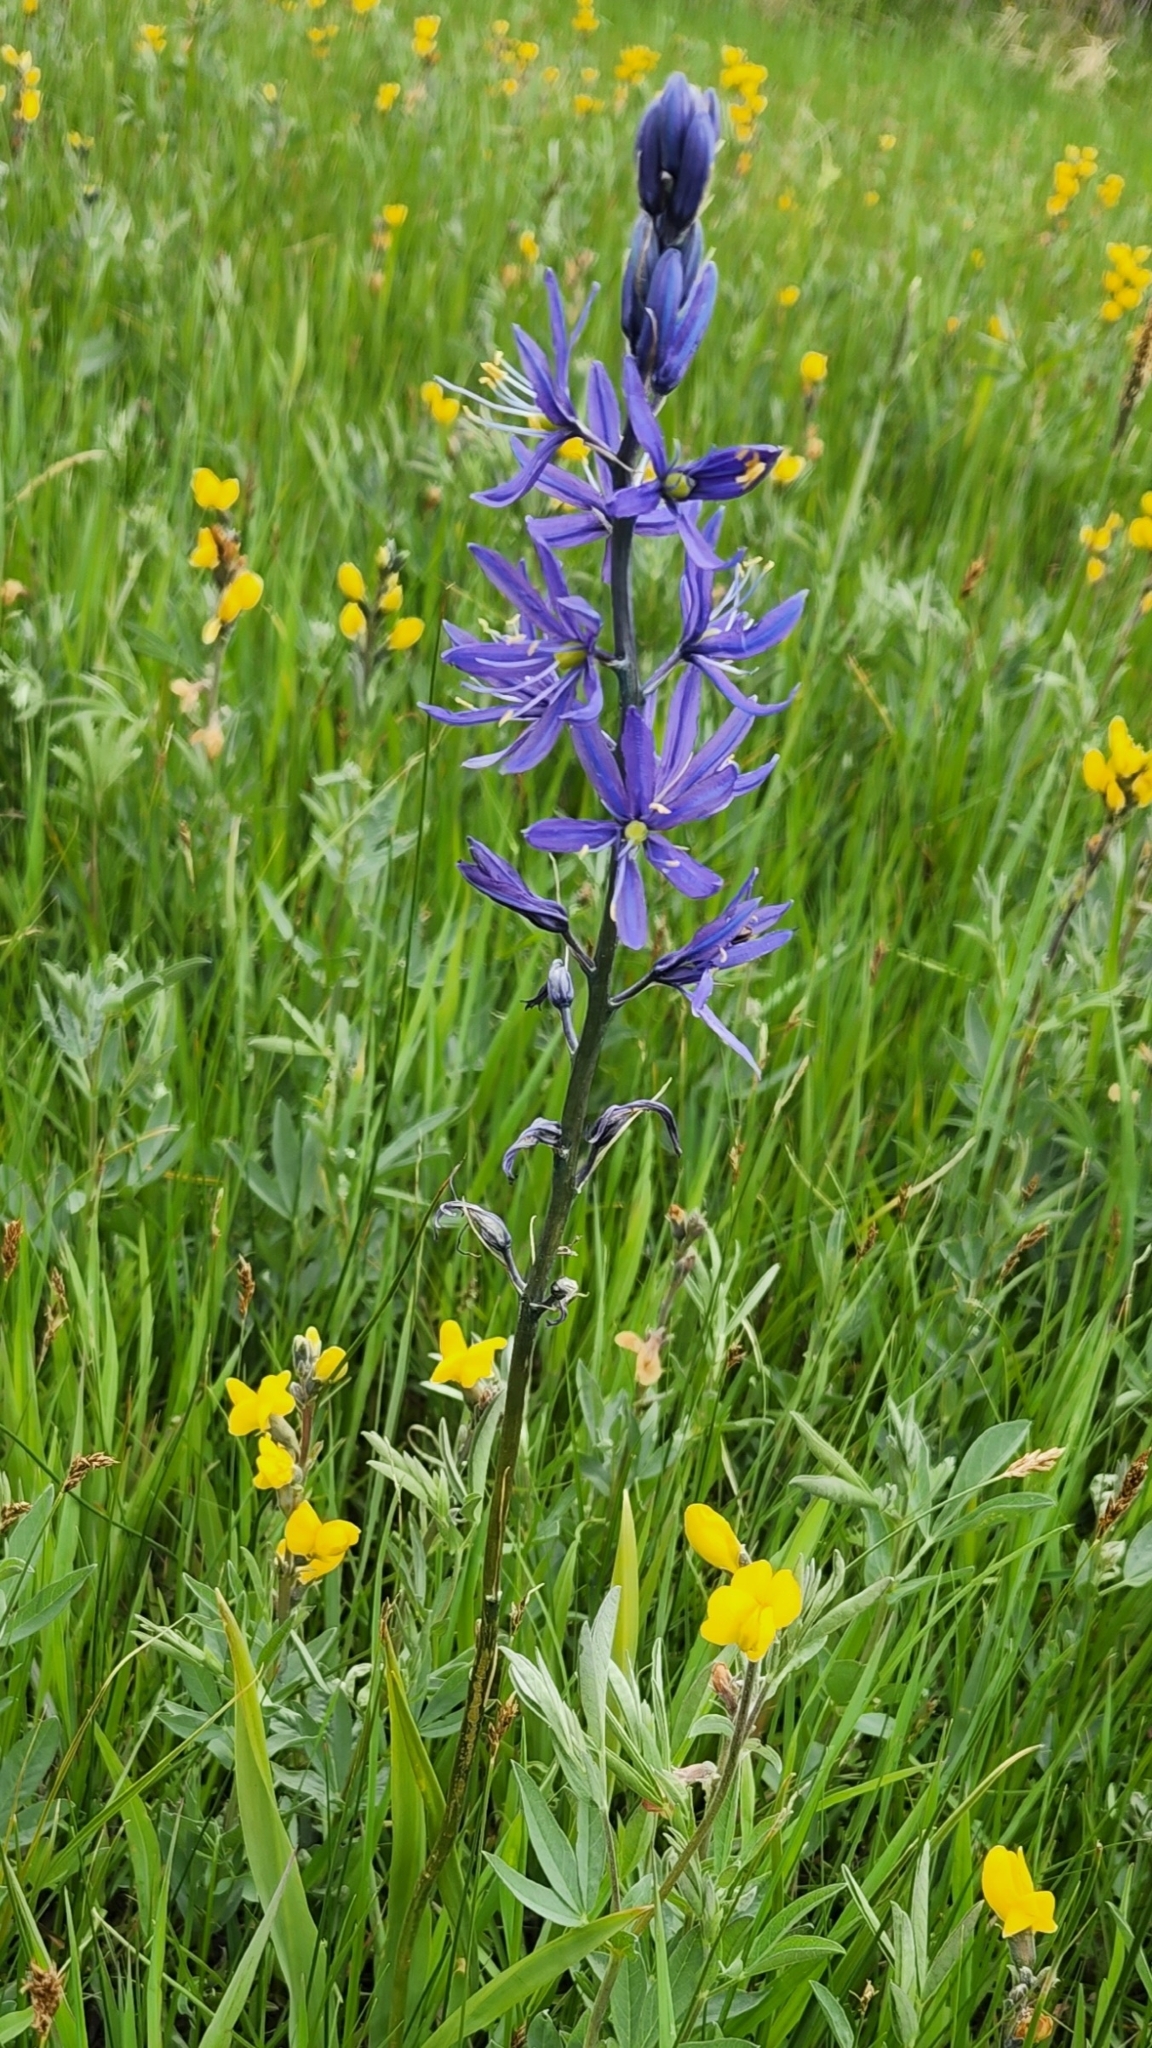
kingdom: Plantae
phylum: Tracheophyta
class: Liliopsida
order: Asparagales
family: Asparagaceae
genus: Camassia
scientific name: Camassia quamash
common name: Common camas
